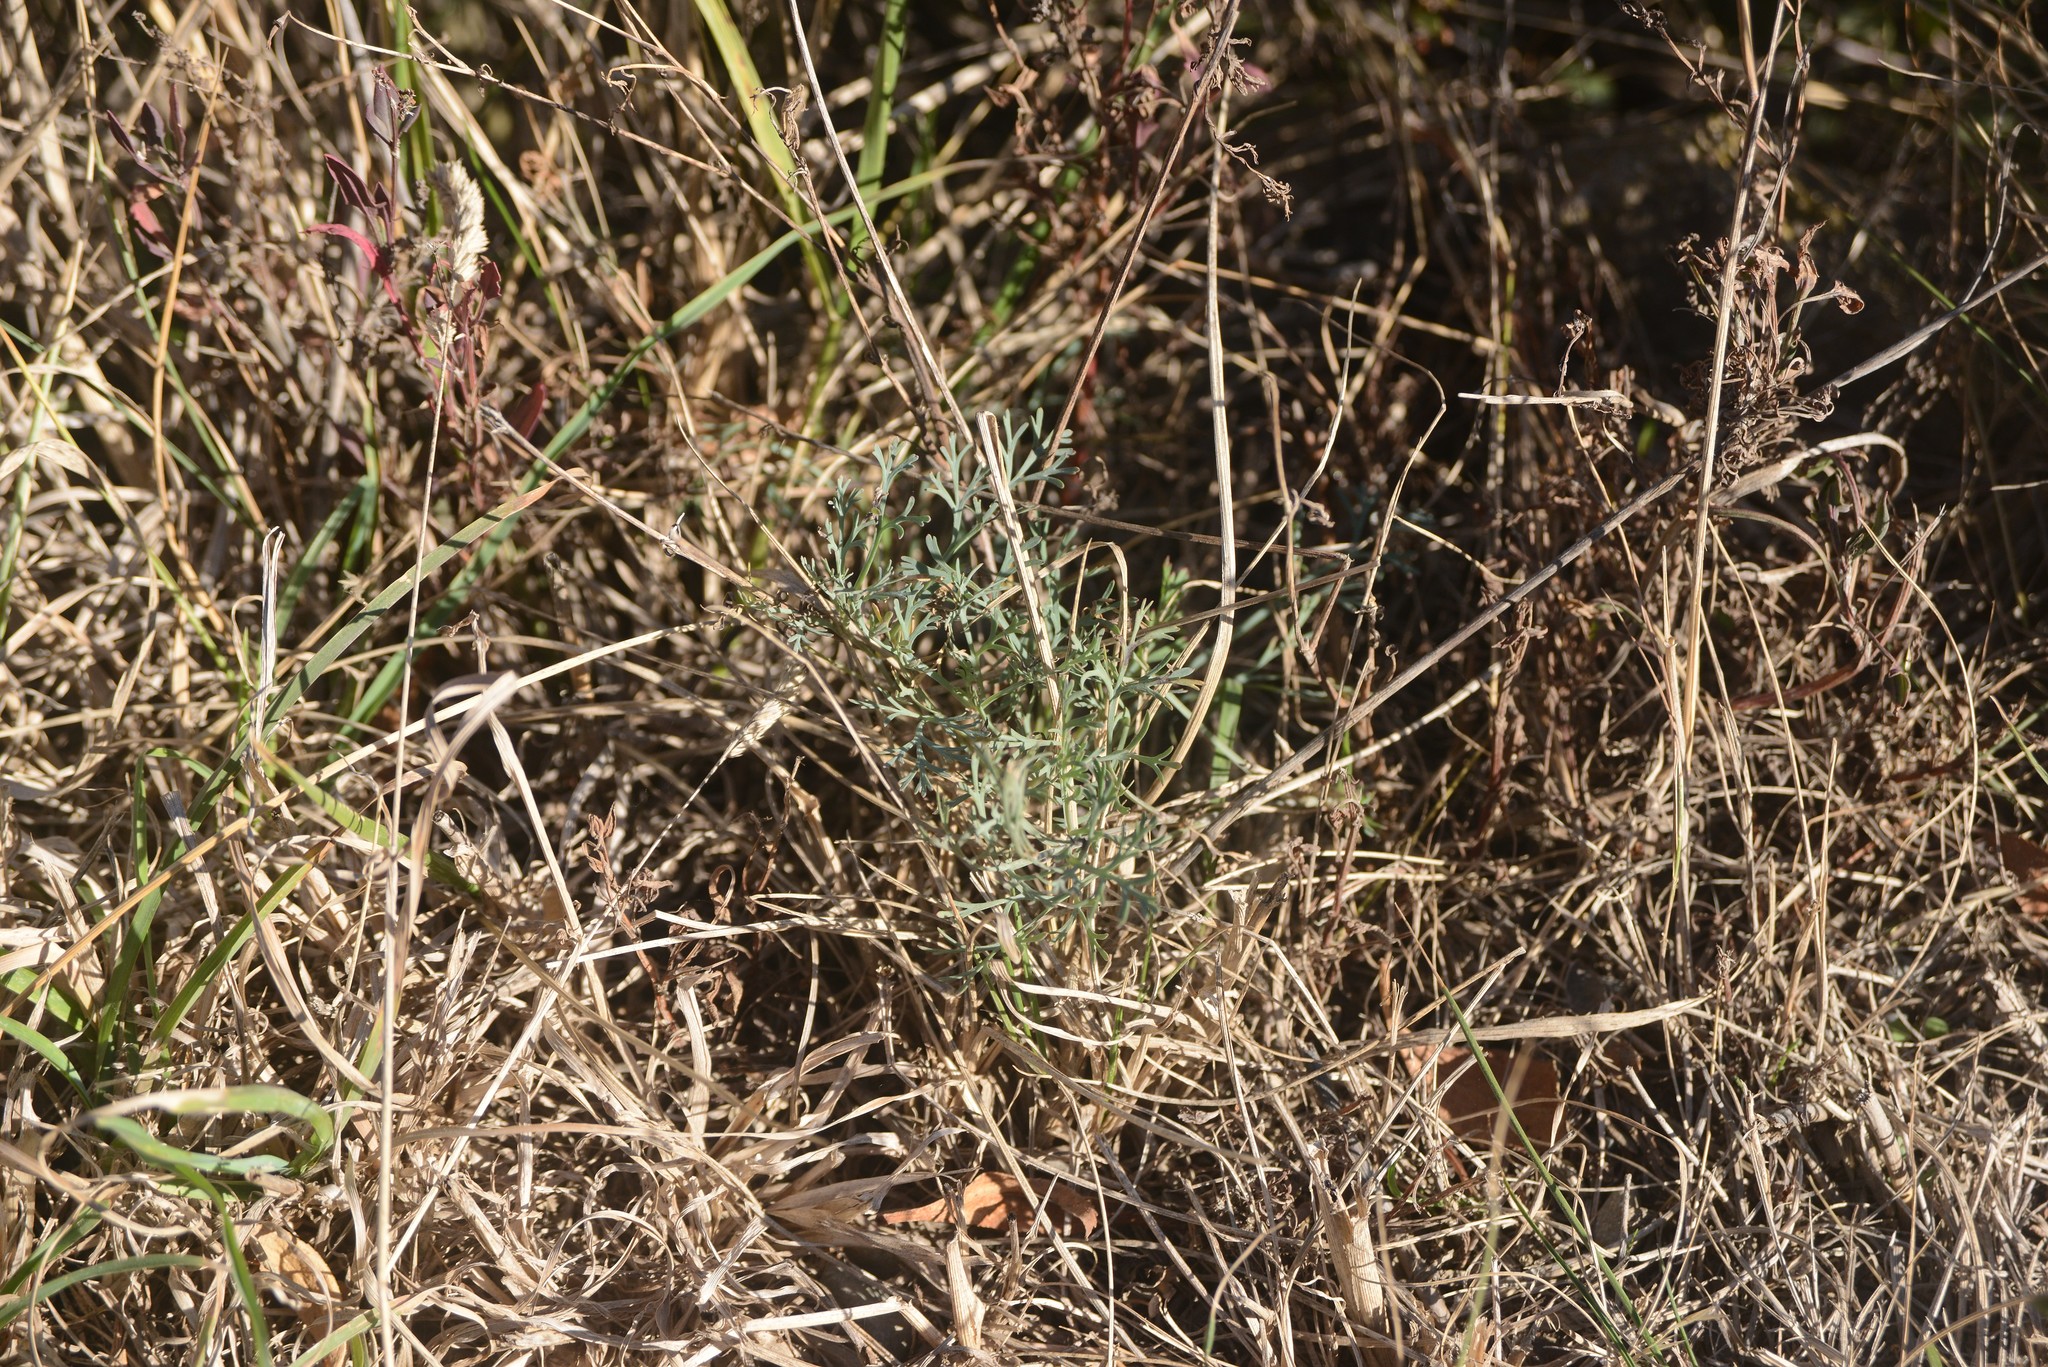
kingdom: Plantae
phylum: Tracheophyta
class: Magnoliopsida
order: Ranunculales
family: Papaveraceae
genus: Eschscholzia
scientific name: Eschscholzia californica
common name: California poppy
